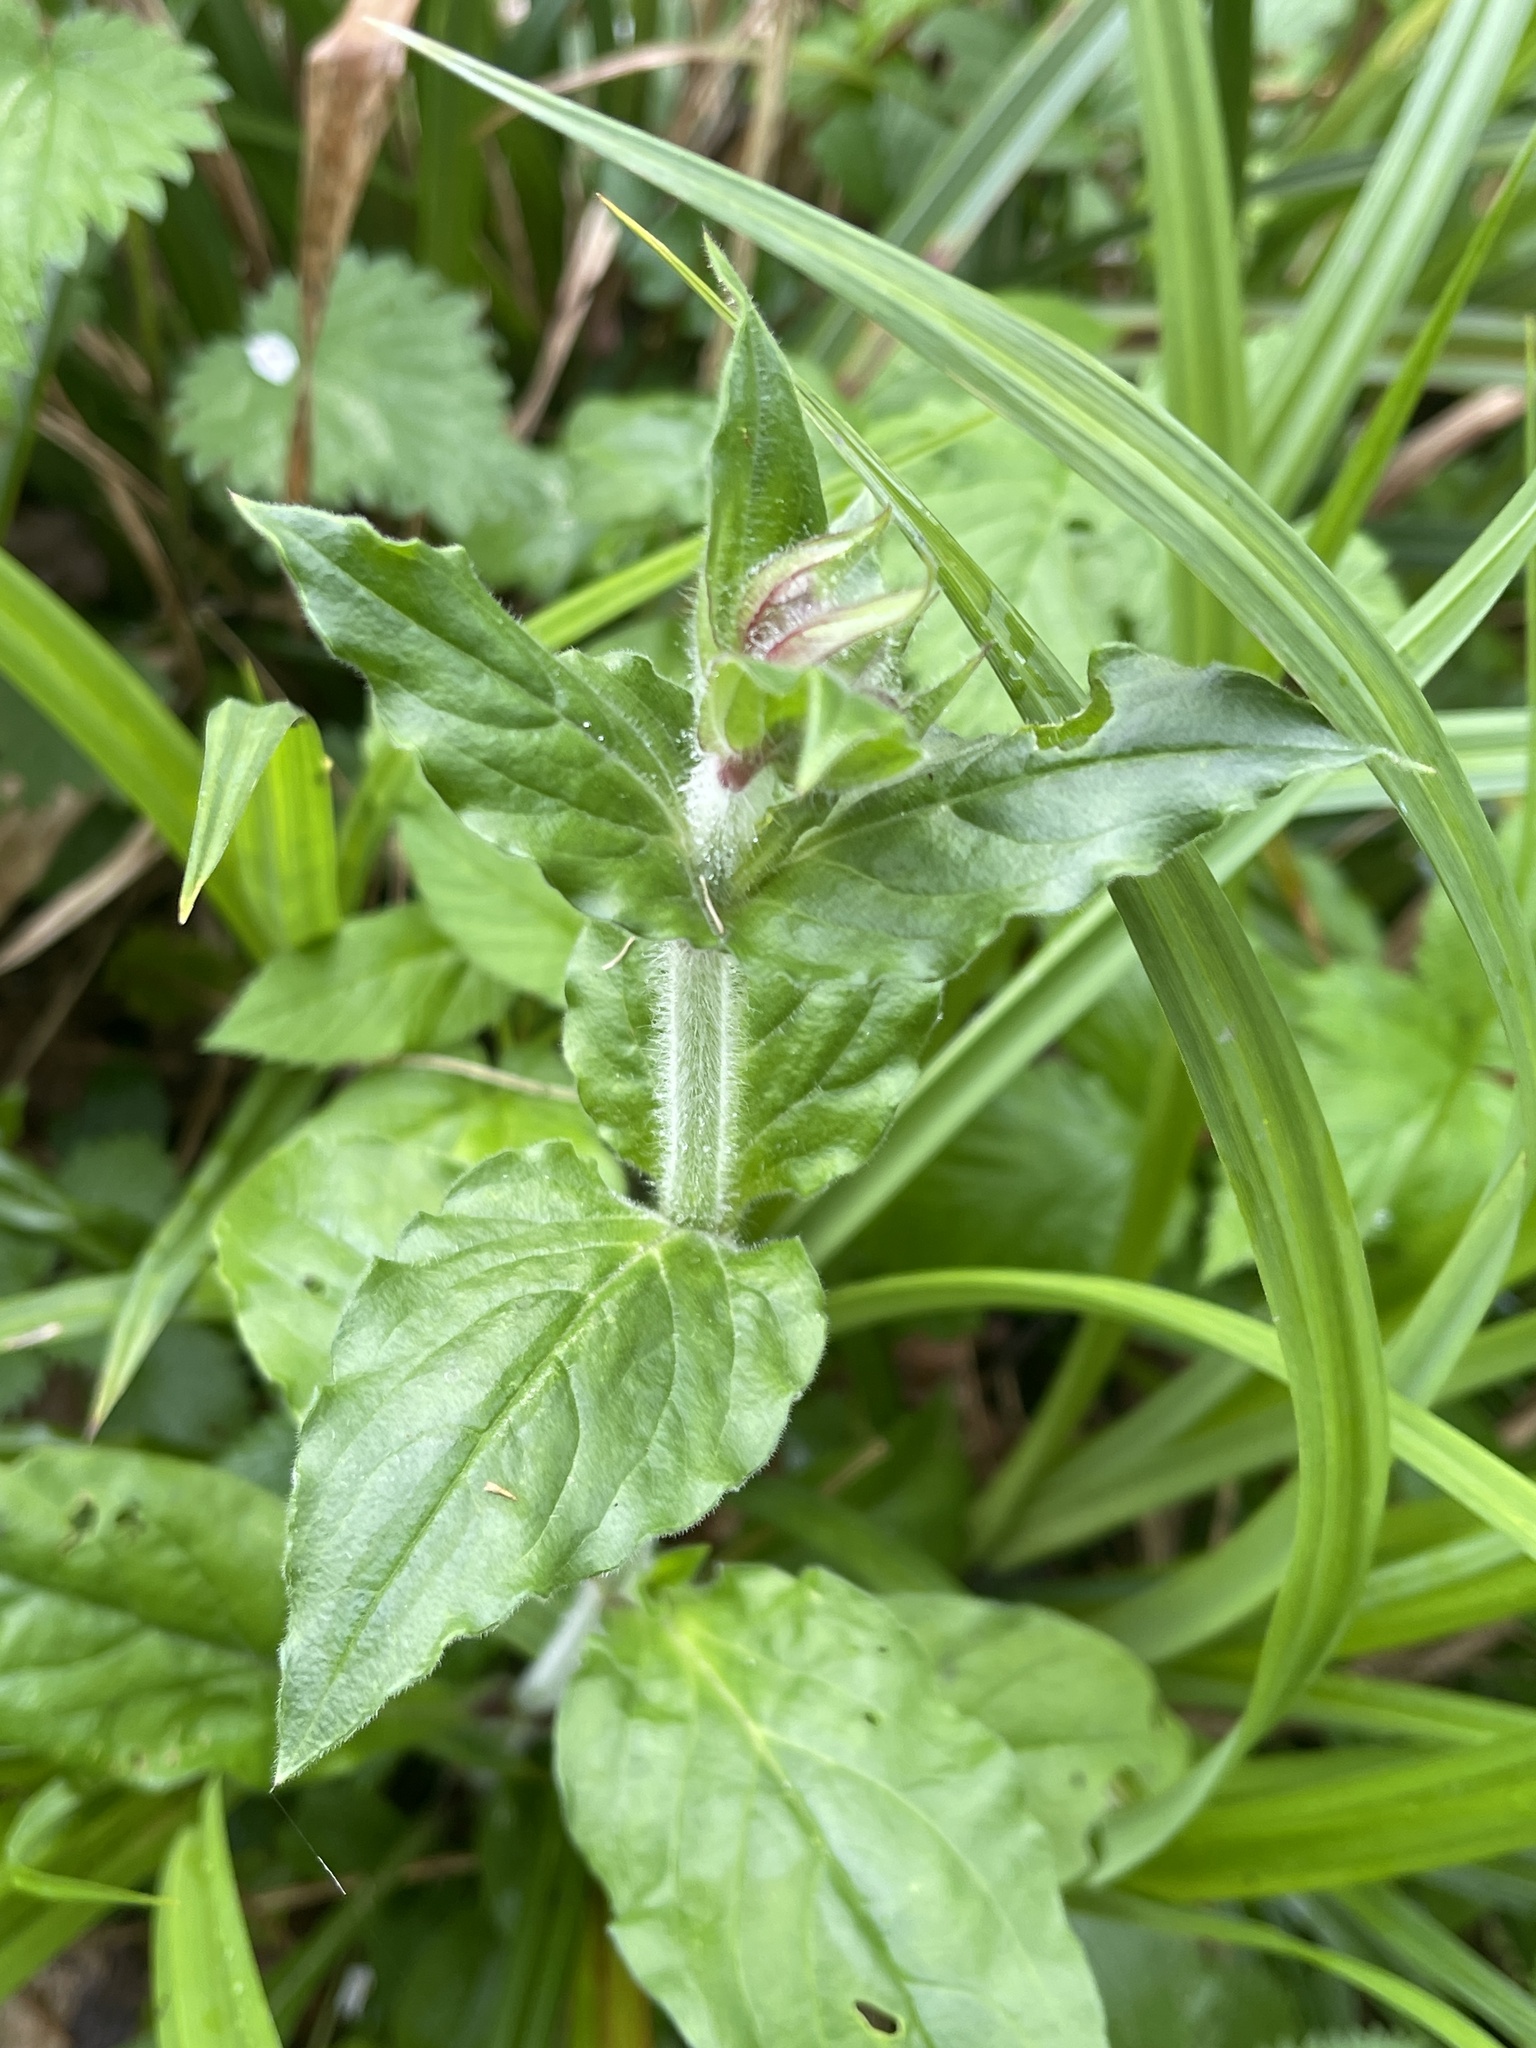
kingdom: Plantae
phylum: Tracheophyta
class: Magnoliopsida
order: Caryophyllales
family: Caryophyllaceae
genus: Silene
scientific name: Silene dioica
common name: Red campion
